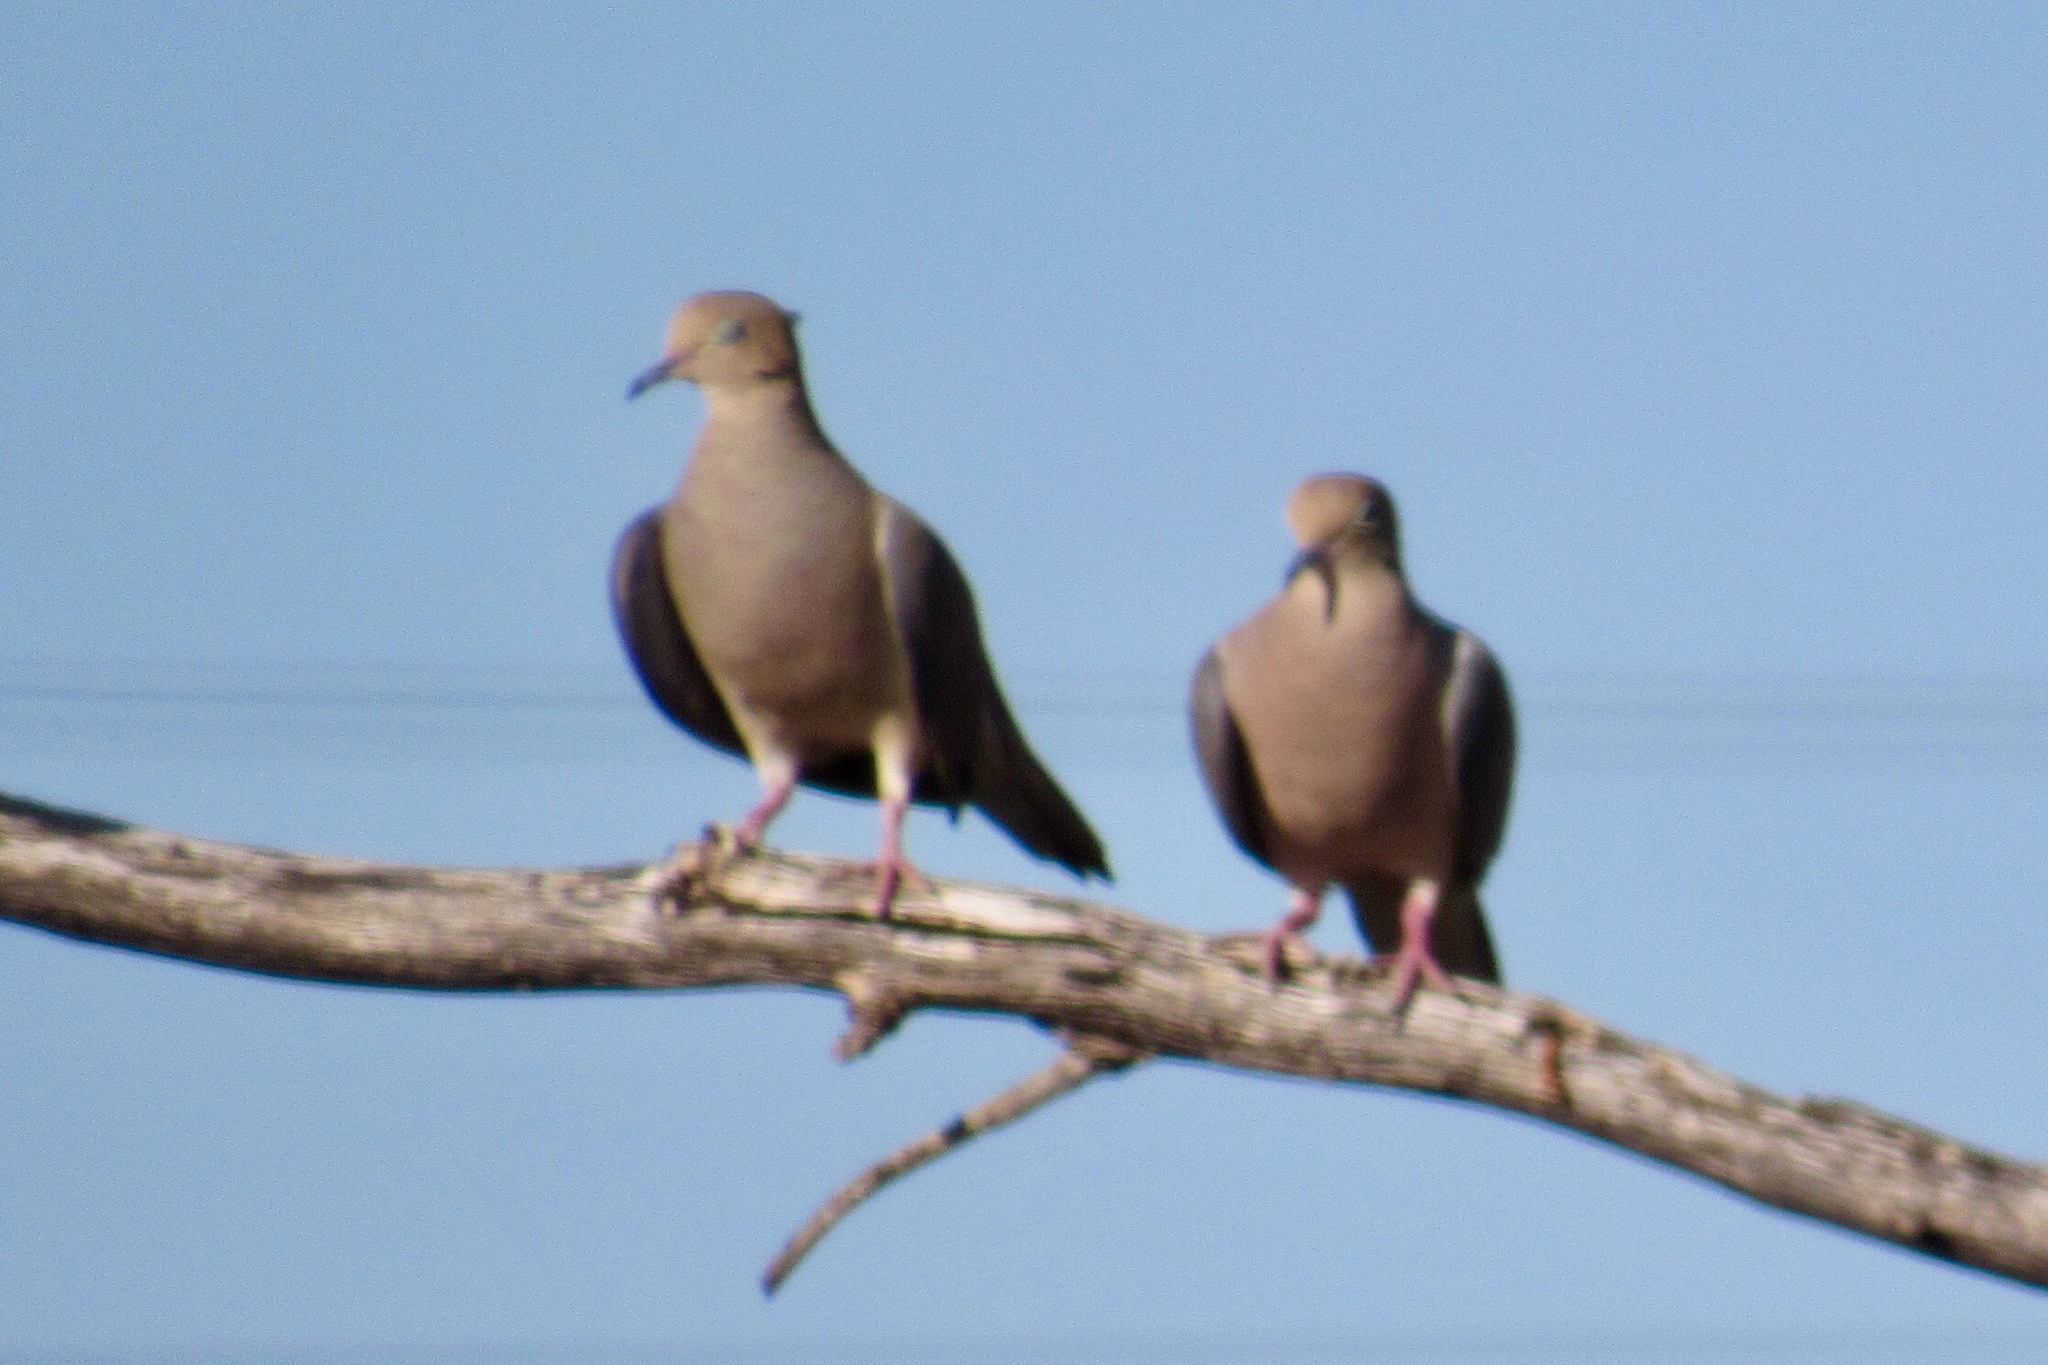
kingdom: Animalia
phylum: Chordata
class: Aves
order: Columbiformes
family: Columbidae
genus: Zenaida
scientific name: Zenaida macroura
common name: Mourning dove
